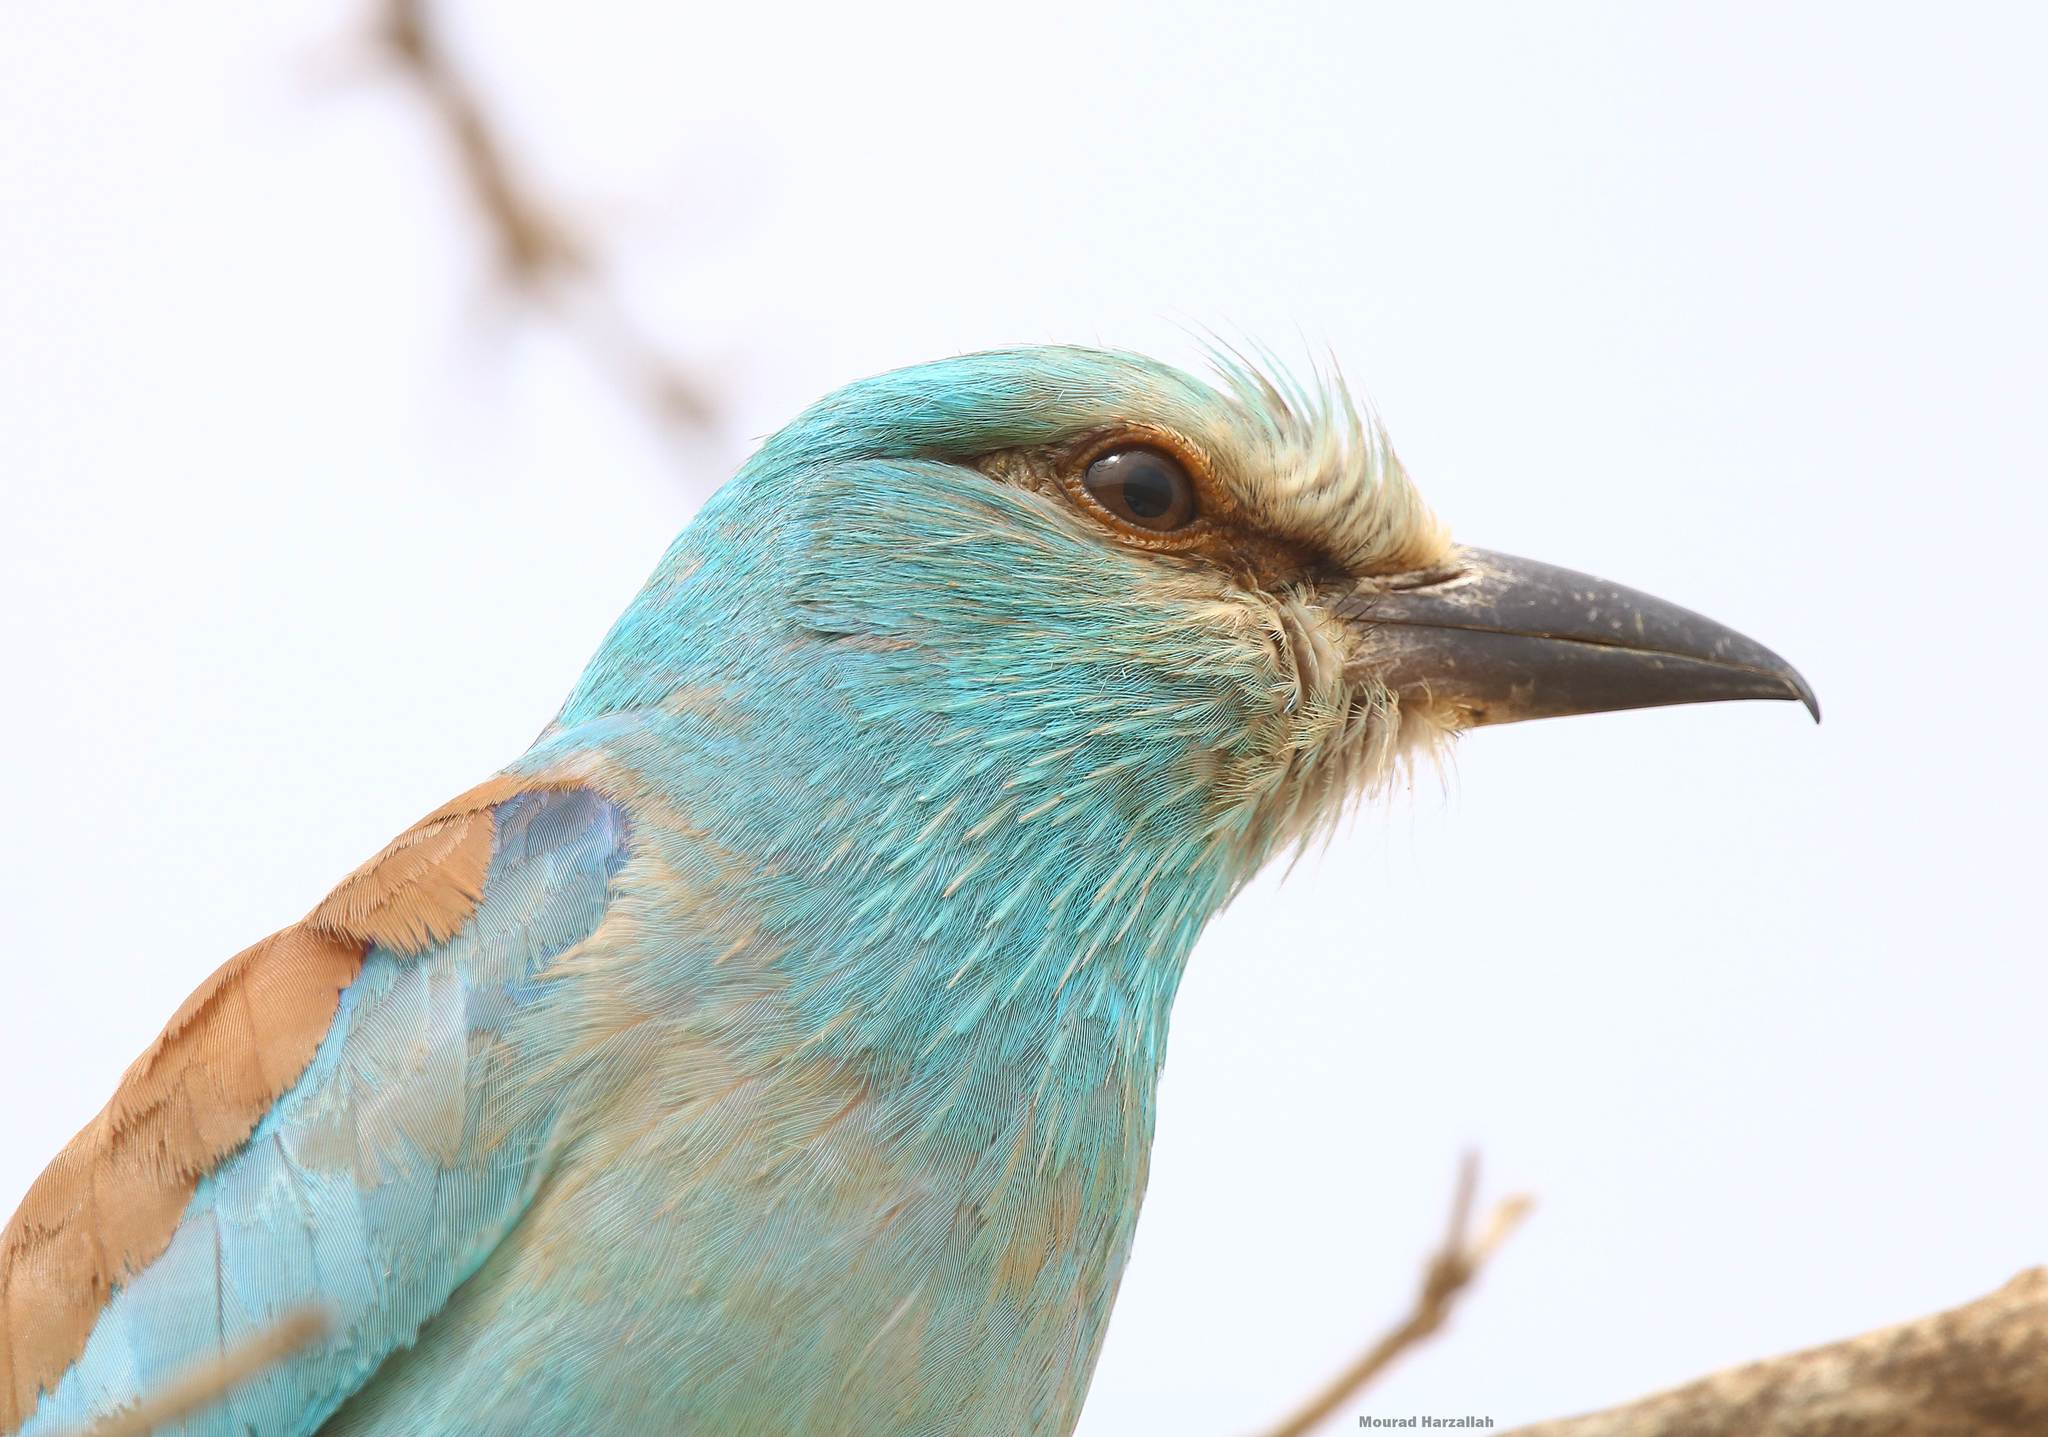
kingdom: Animalia
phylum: Chordata
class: Aves
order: Coraciiformes
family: Coraciidae
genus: Coracias
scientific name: Coracias garrulus
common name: European roller
